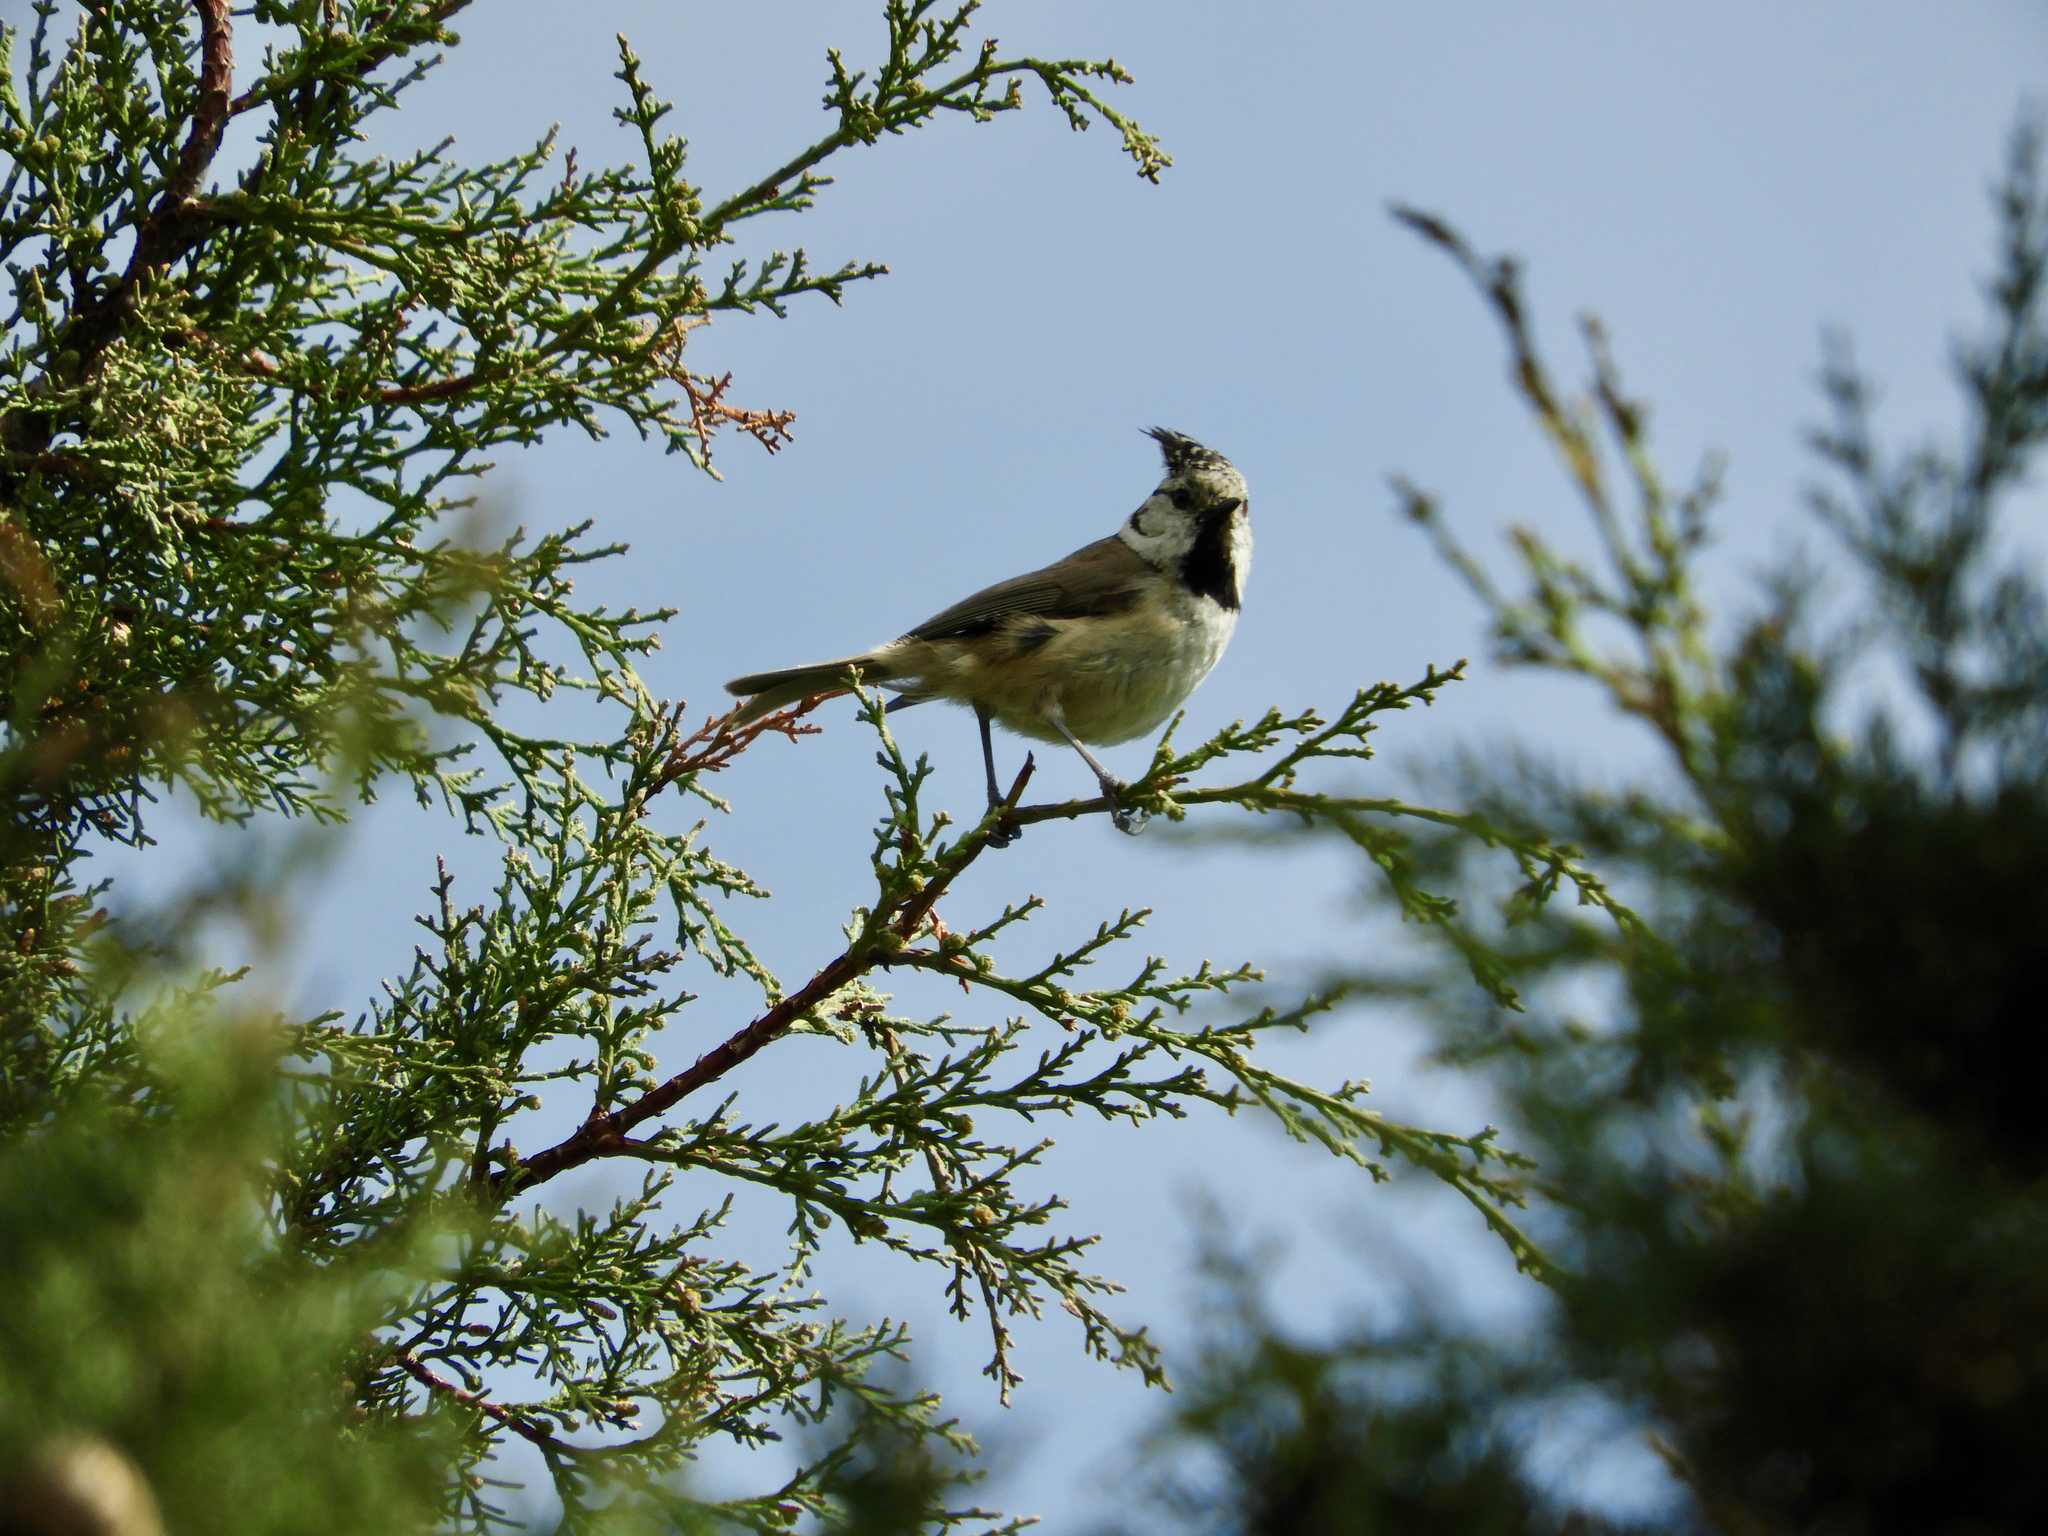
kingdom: Animalia
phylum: Chordata
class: Aves
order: Passeriformes
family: Paridae
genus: Lophophanes
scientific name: Lophophanes cristatus
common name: European crested tit
